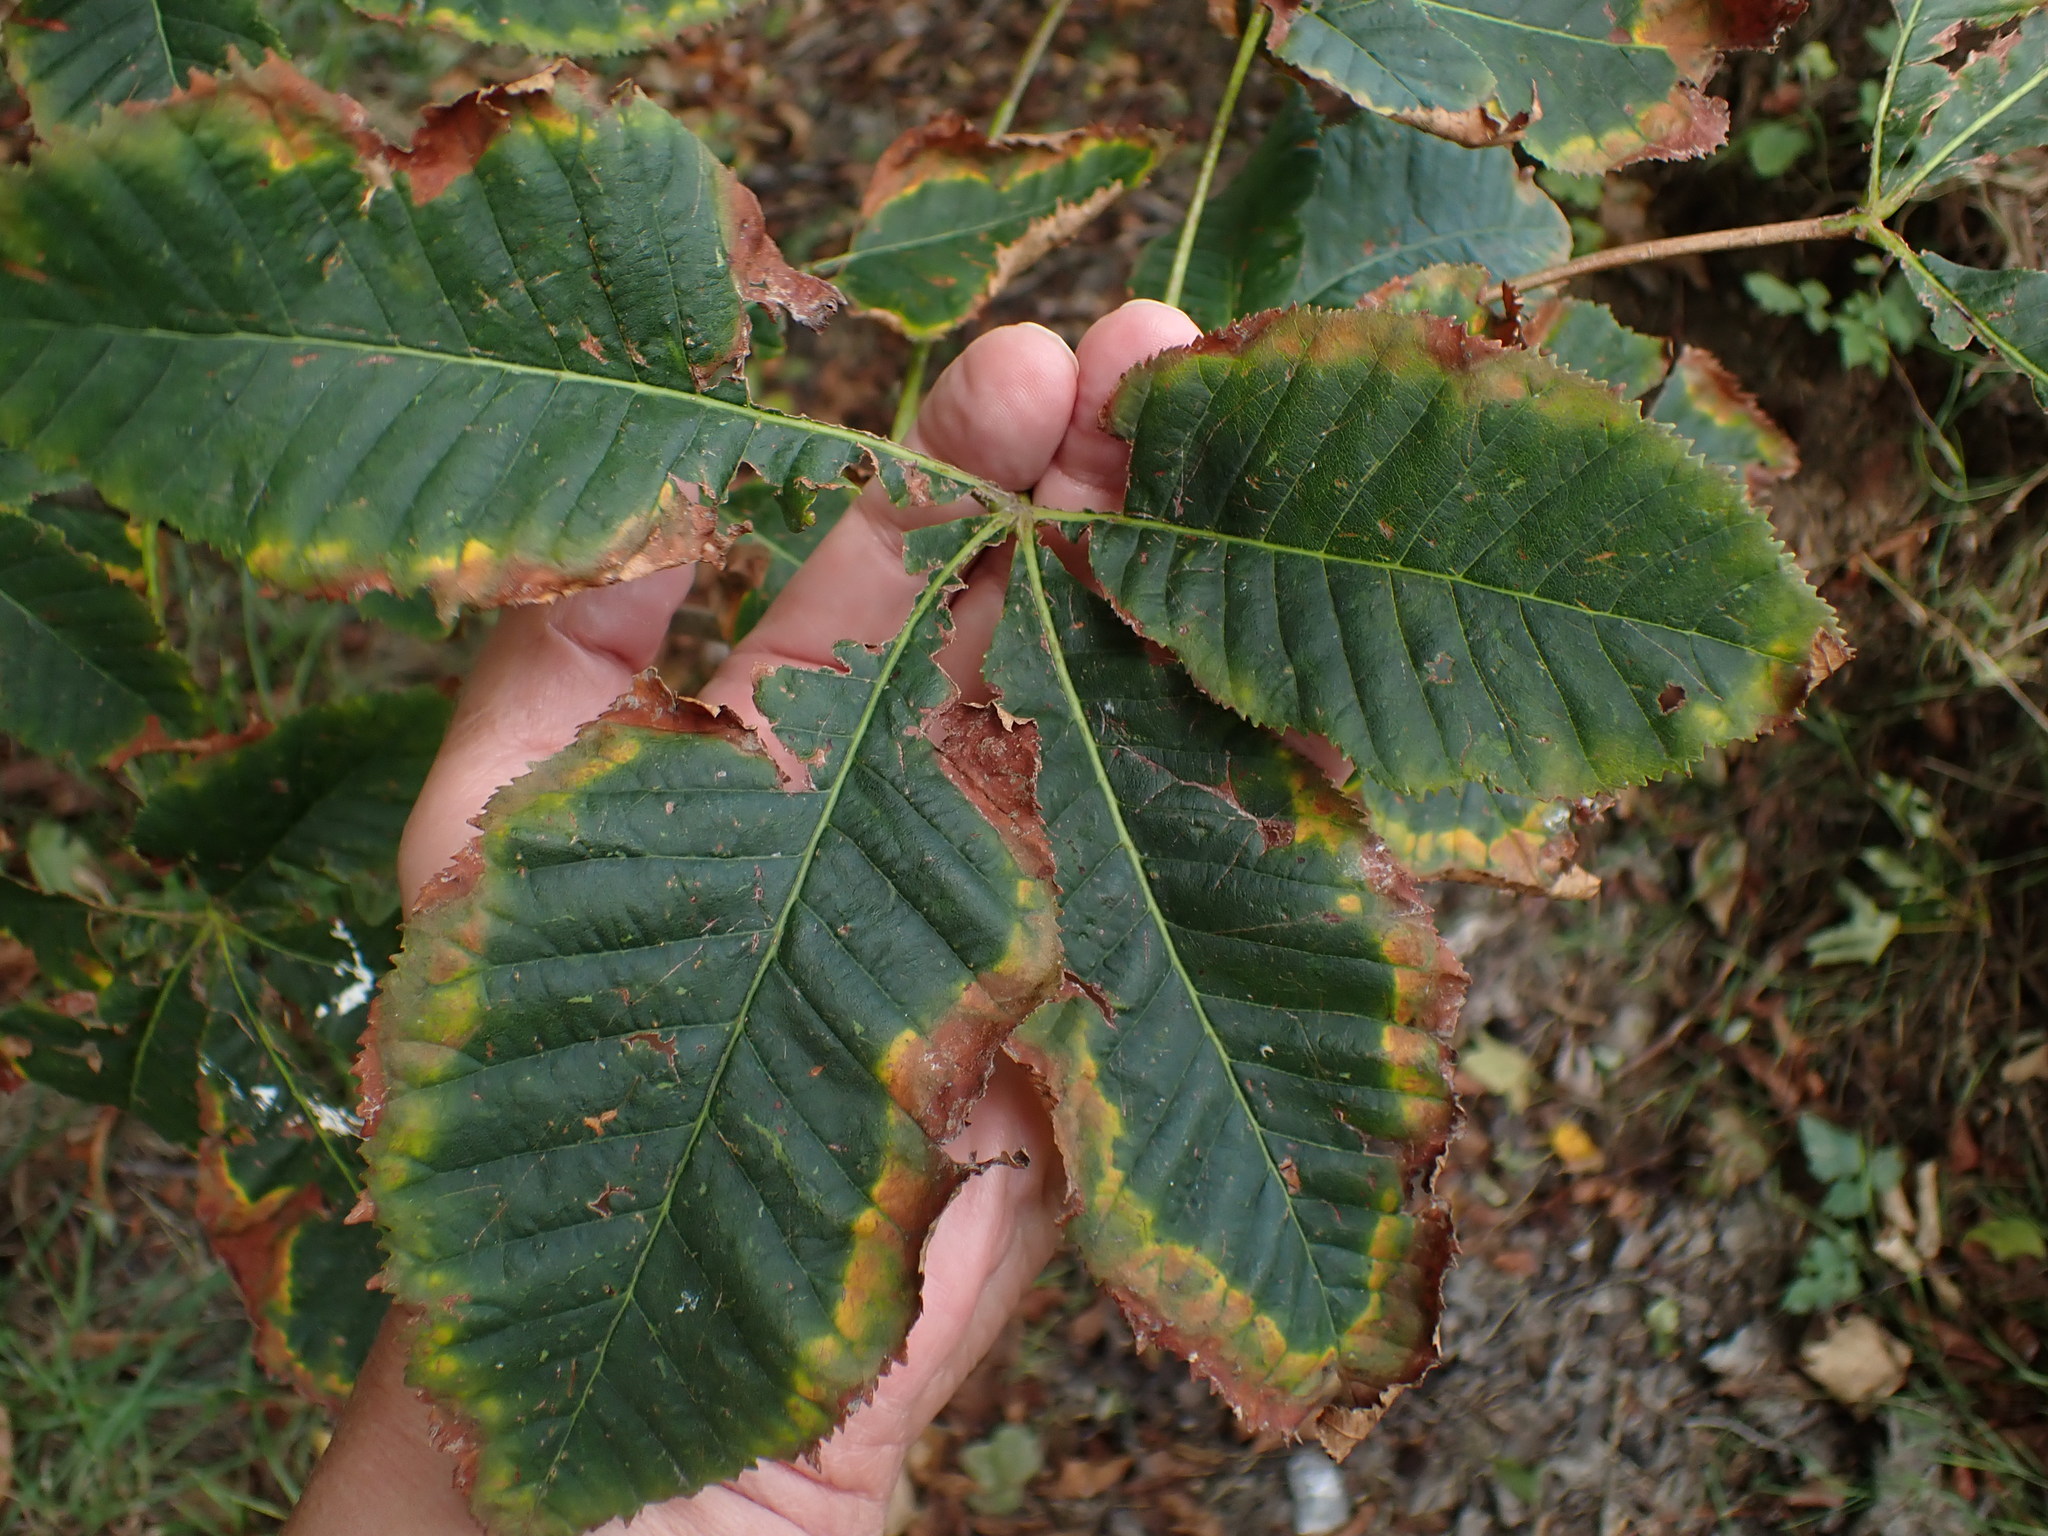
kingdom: Plantae
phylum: Tracheophyta
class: Magnoliopsida
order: Sapindales
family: Sapindaceae
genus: Aesculus
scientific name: Aesculus hippocastanum
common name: Horse-chestnut
